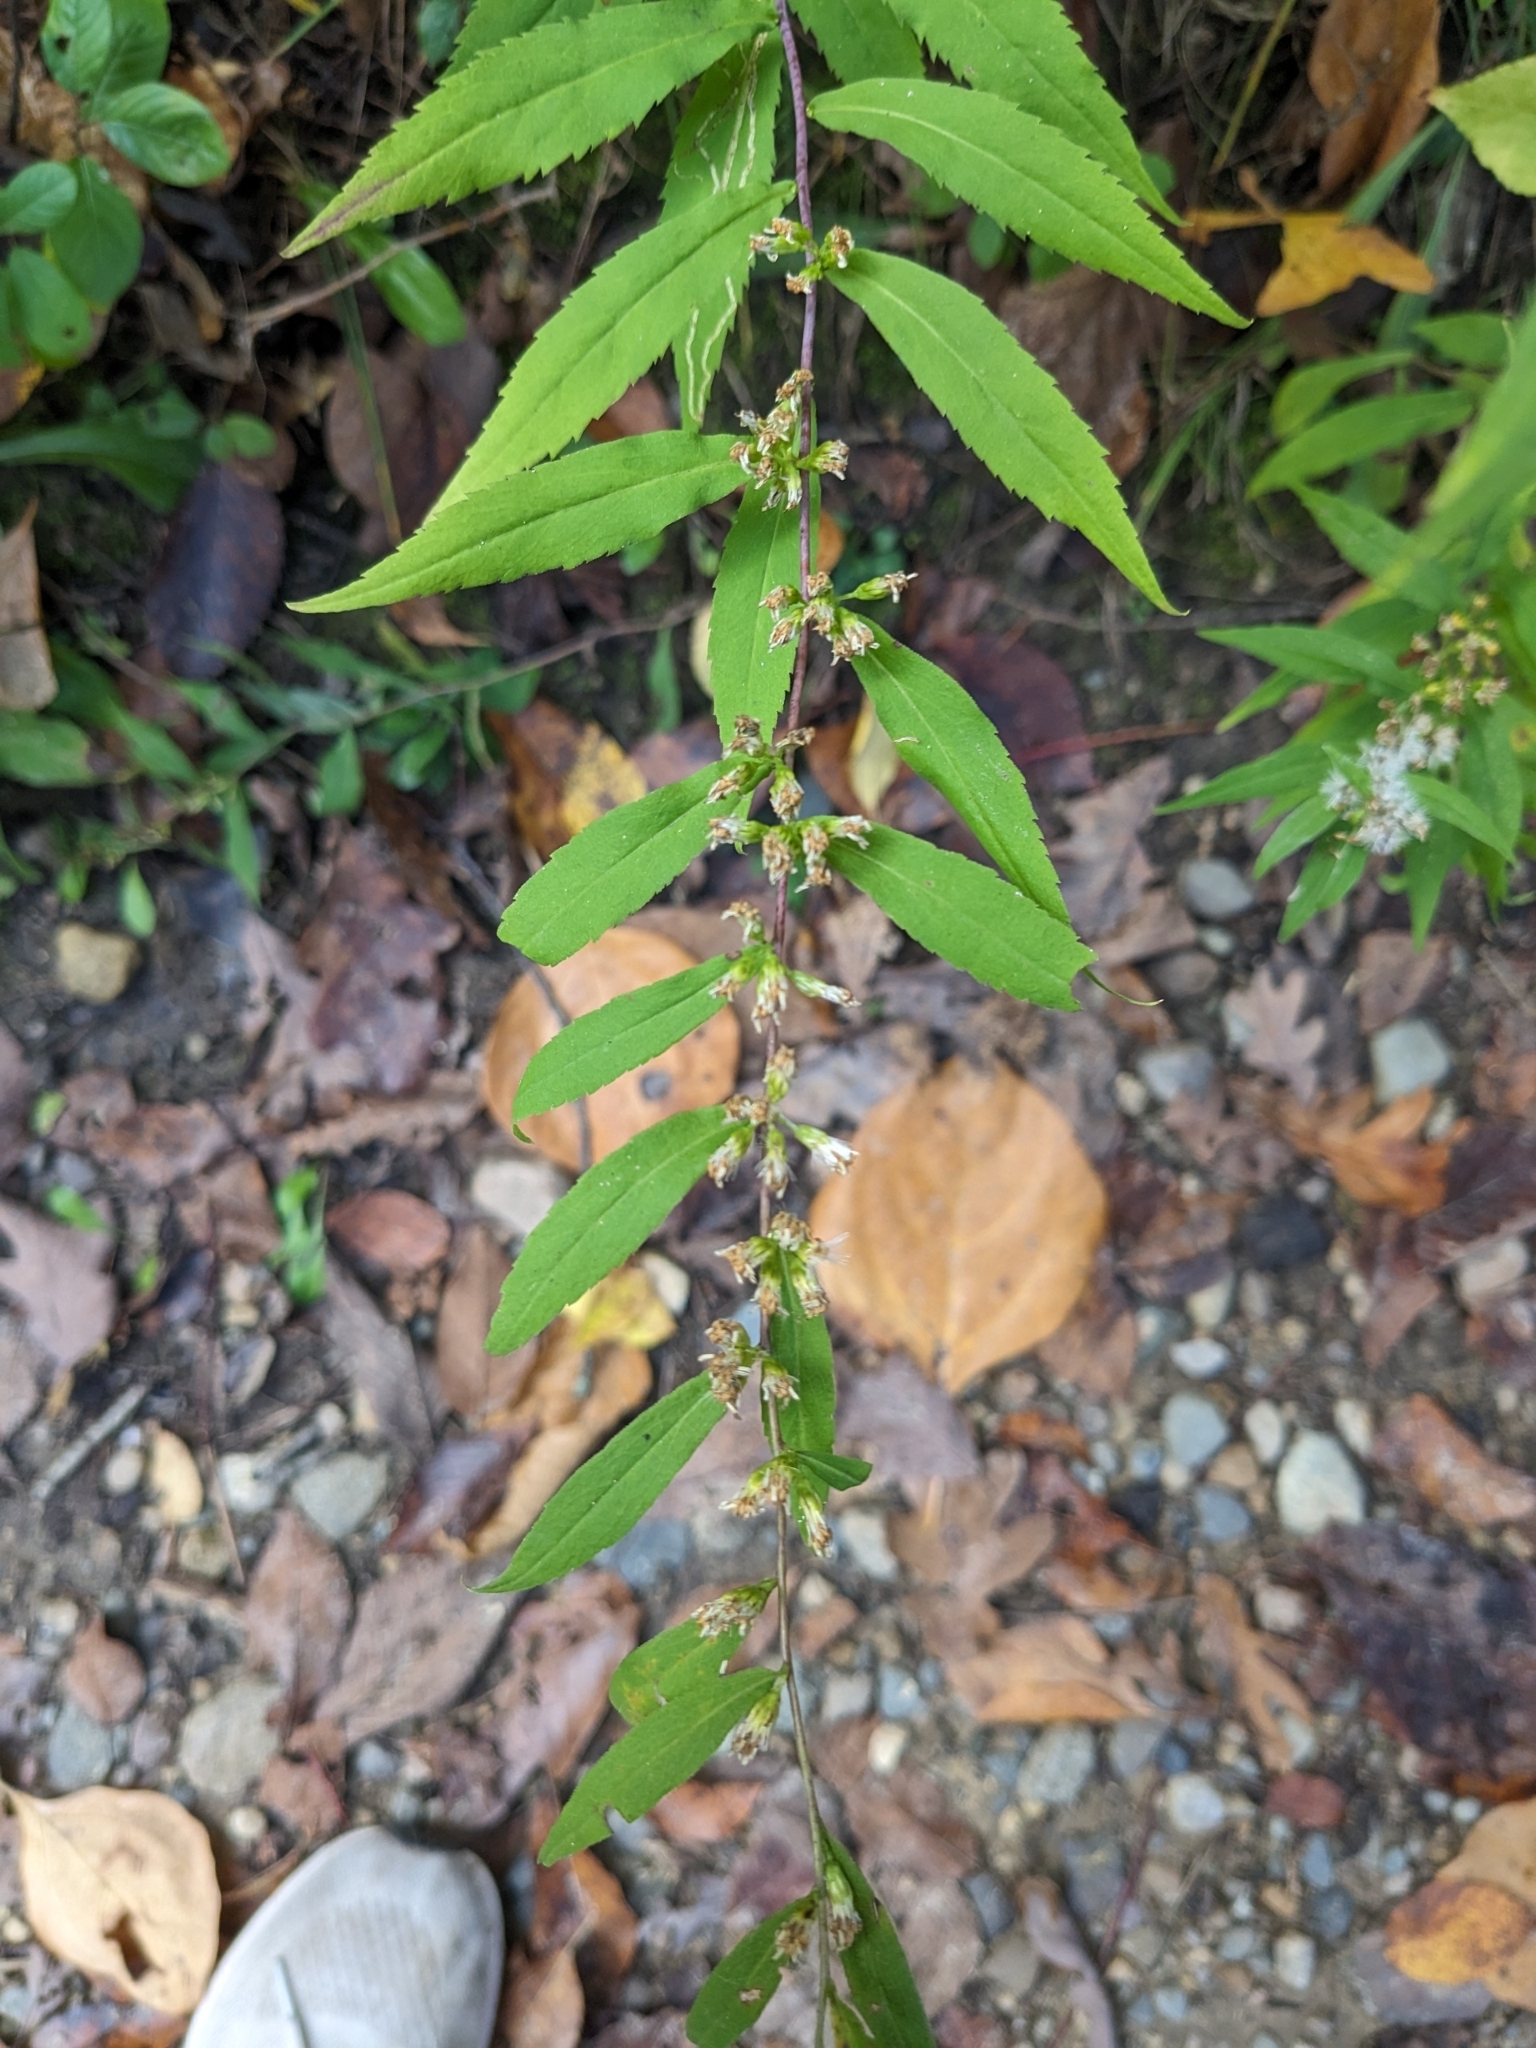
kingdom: Plantae
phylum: Tracheophyta
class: Magnoliopsida
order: Asterales
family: Asteraceae
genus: Solidago
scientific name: Solidago caesia
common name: Woodland goldenrod
